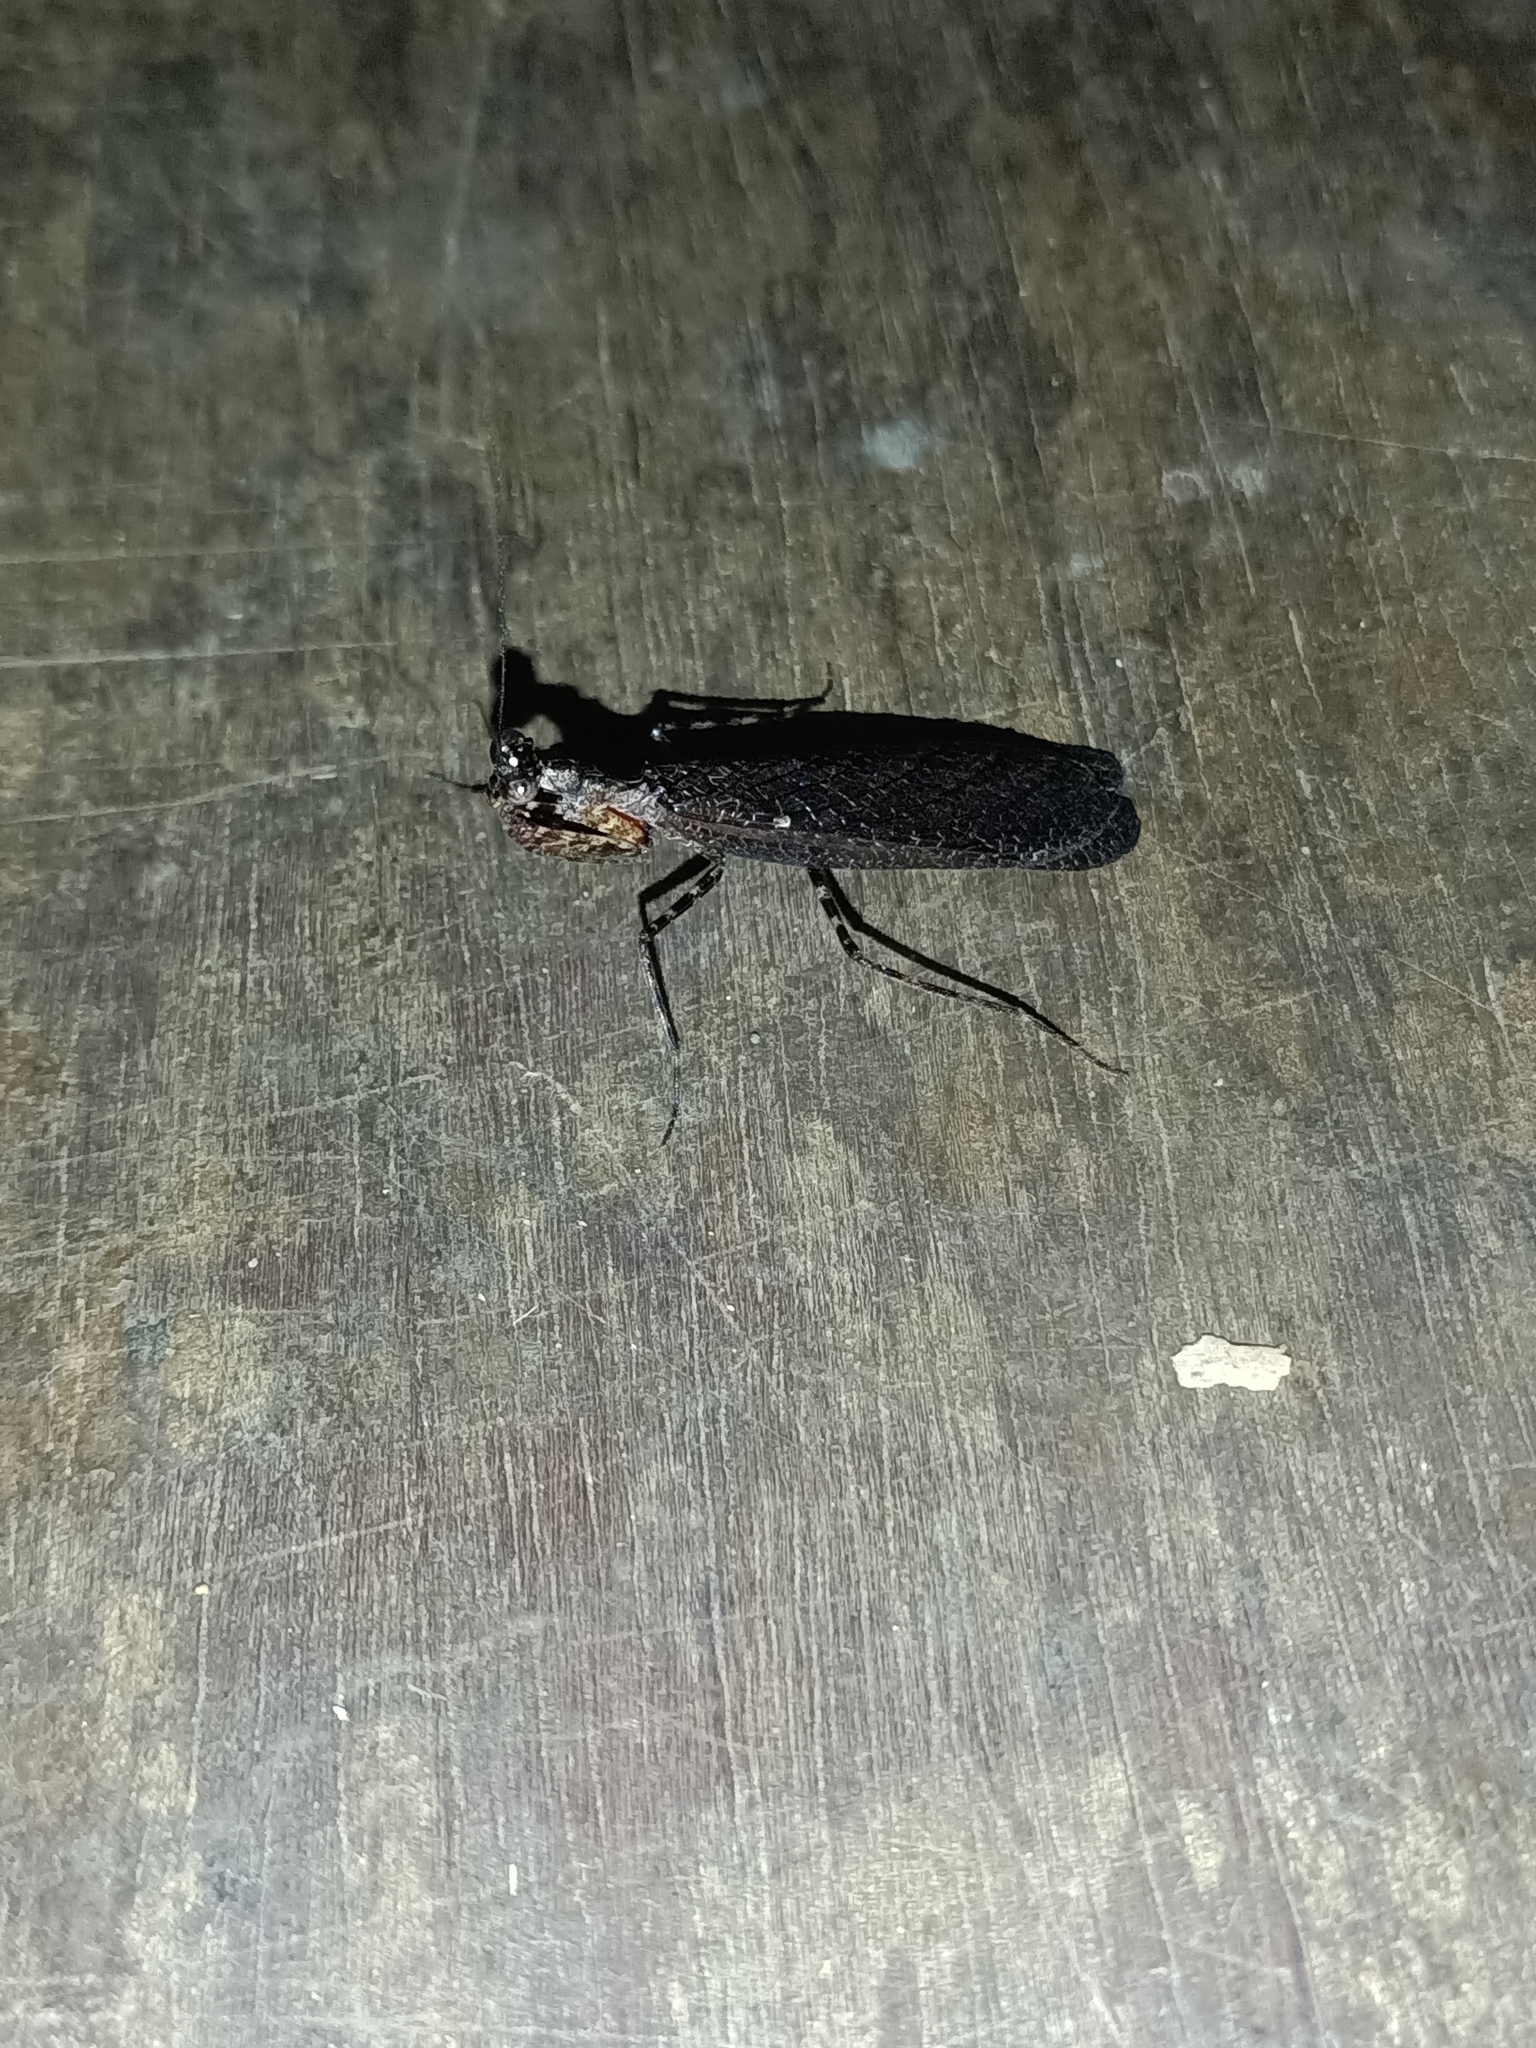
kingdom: Animalia
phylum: Arthropoda
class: Insecta
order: Mantodea
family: Thespidae
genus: Pseudomiopteryx
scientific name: Pseudomiopteryx guyanensis
